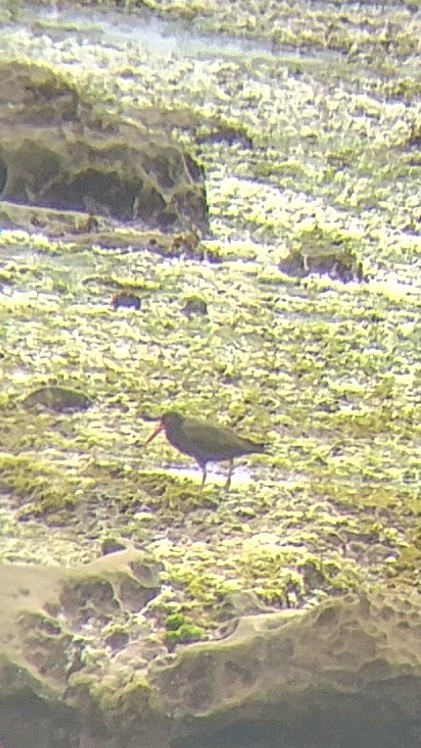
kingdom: Animalia
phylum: Chordata
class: Aves
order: Charadriiformes
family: Haematopodidae
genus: Haematopus
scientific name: Haematopus bachmani
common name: Black oystercatcher
